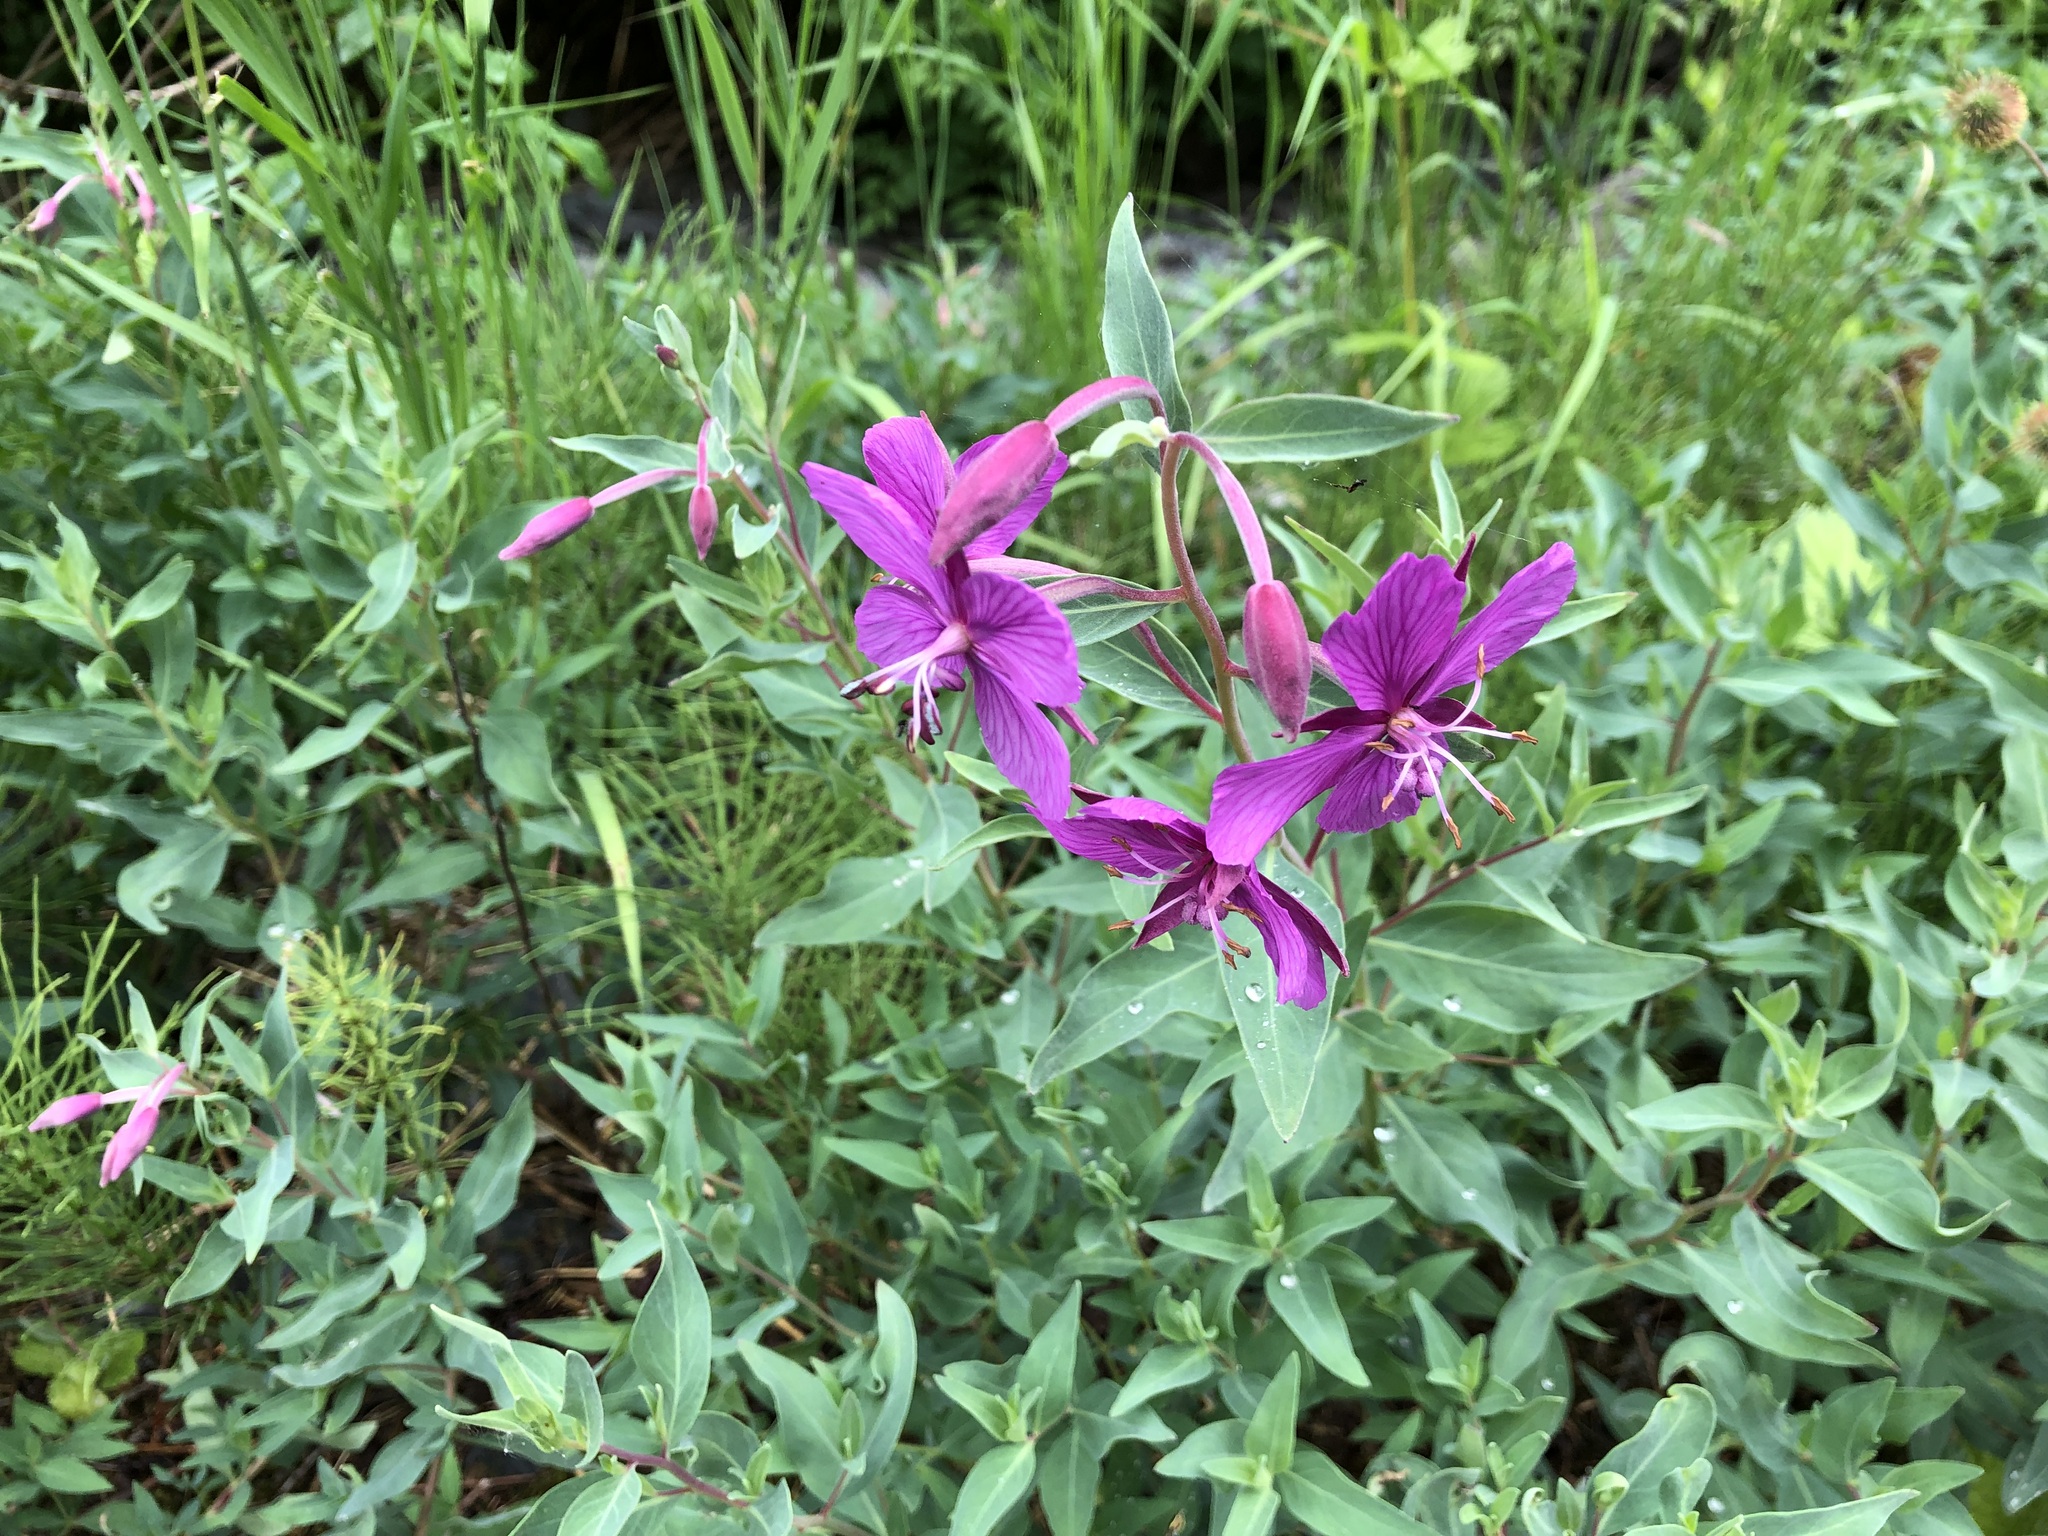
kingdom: Plantae
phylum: Tracheophyta
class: Magnoliopsida
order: Myrtales
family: Onagraceae
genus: Chamaenerion
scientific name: Chamaenerion latifolium
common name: Dwarf fireweed
